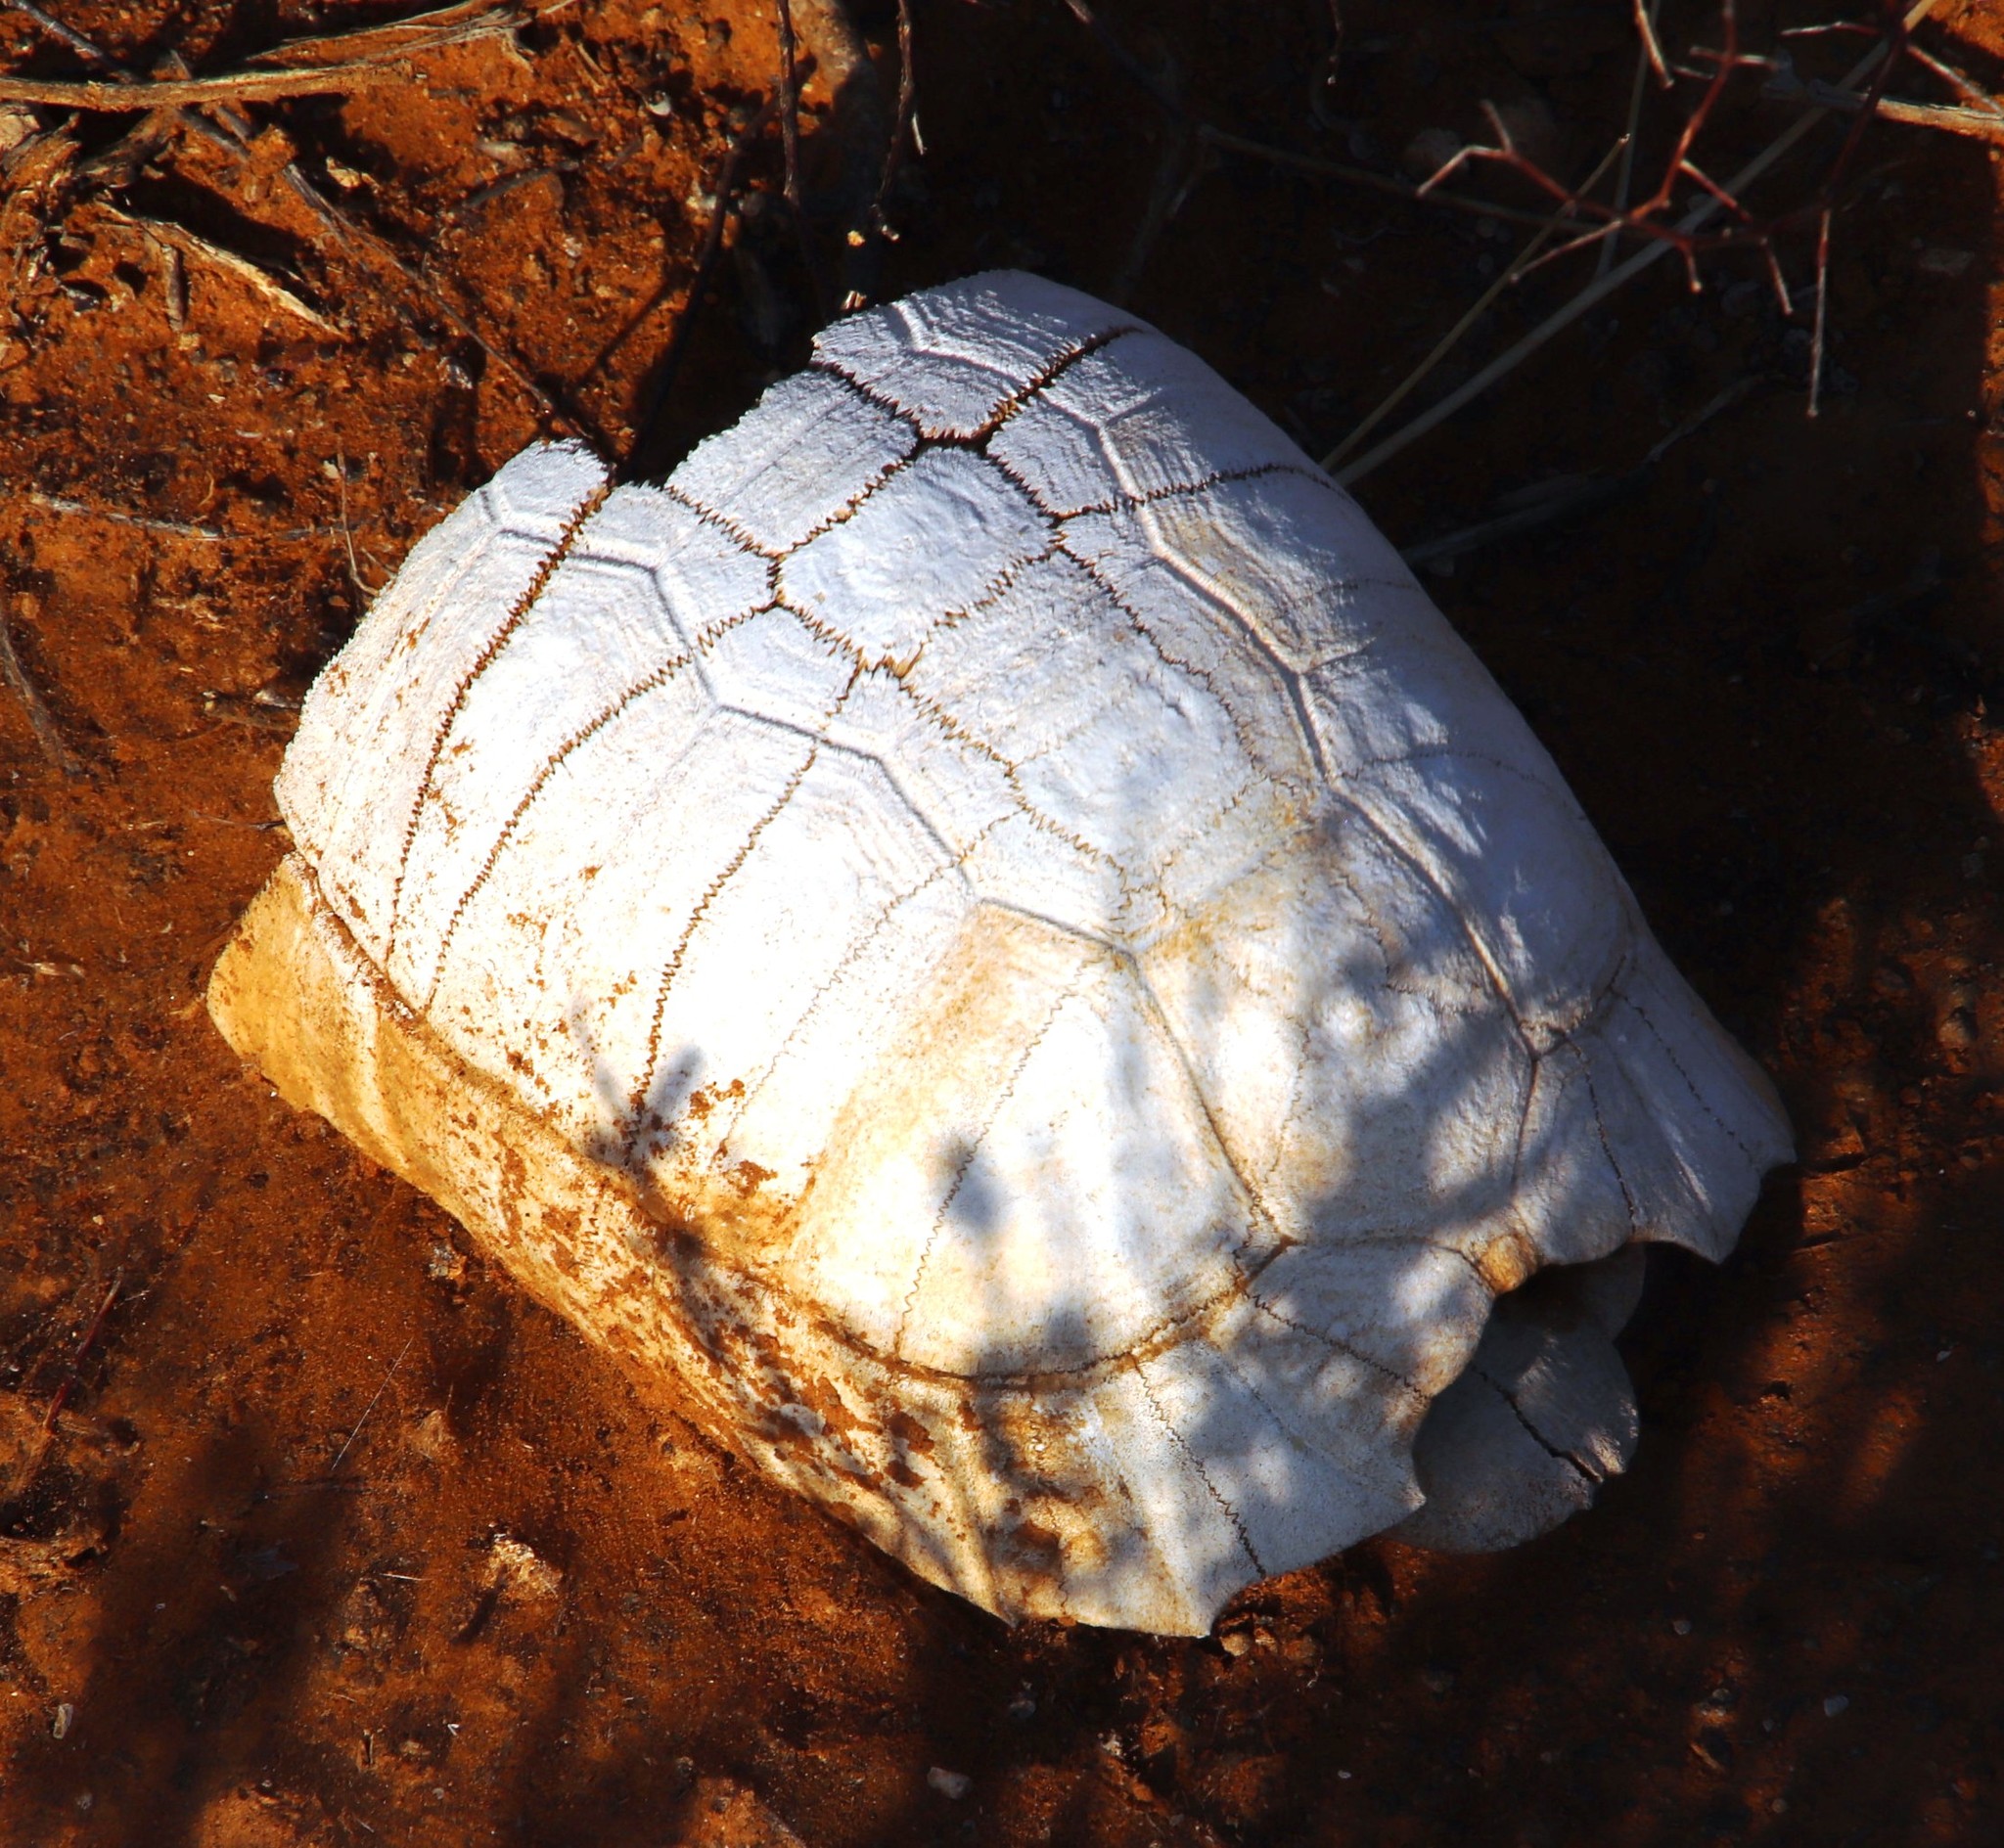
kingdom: Animalia
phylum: Chordata
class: Testudines
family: Testudinidae
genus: Chersina
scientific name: Chersina angulata
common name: South african bowsprit tortoise
